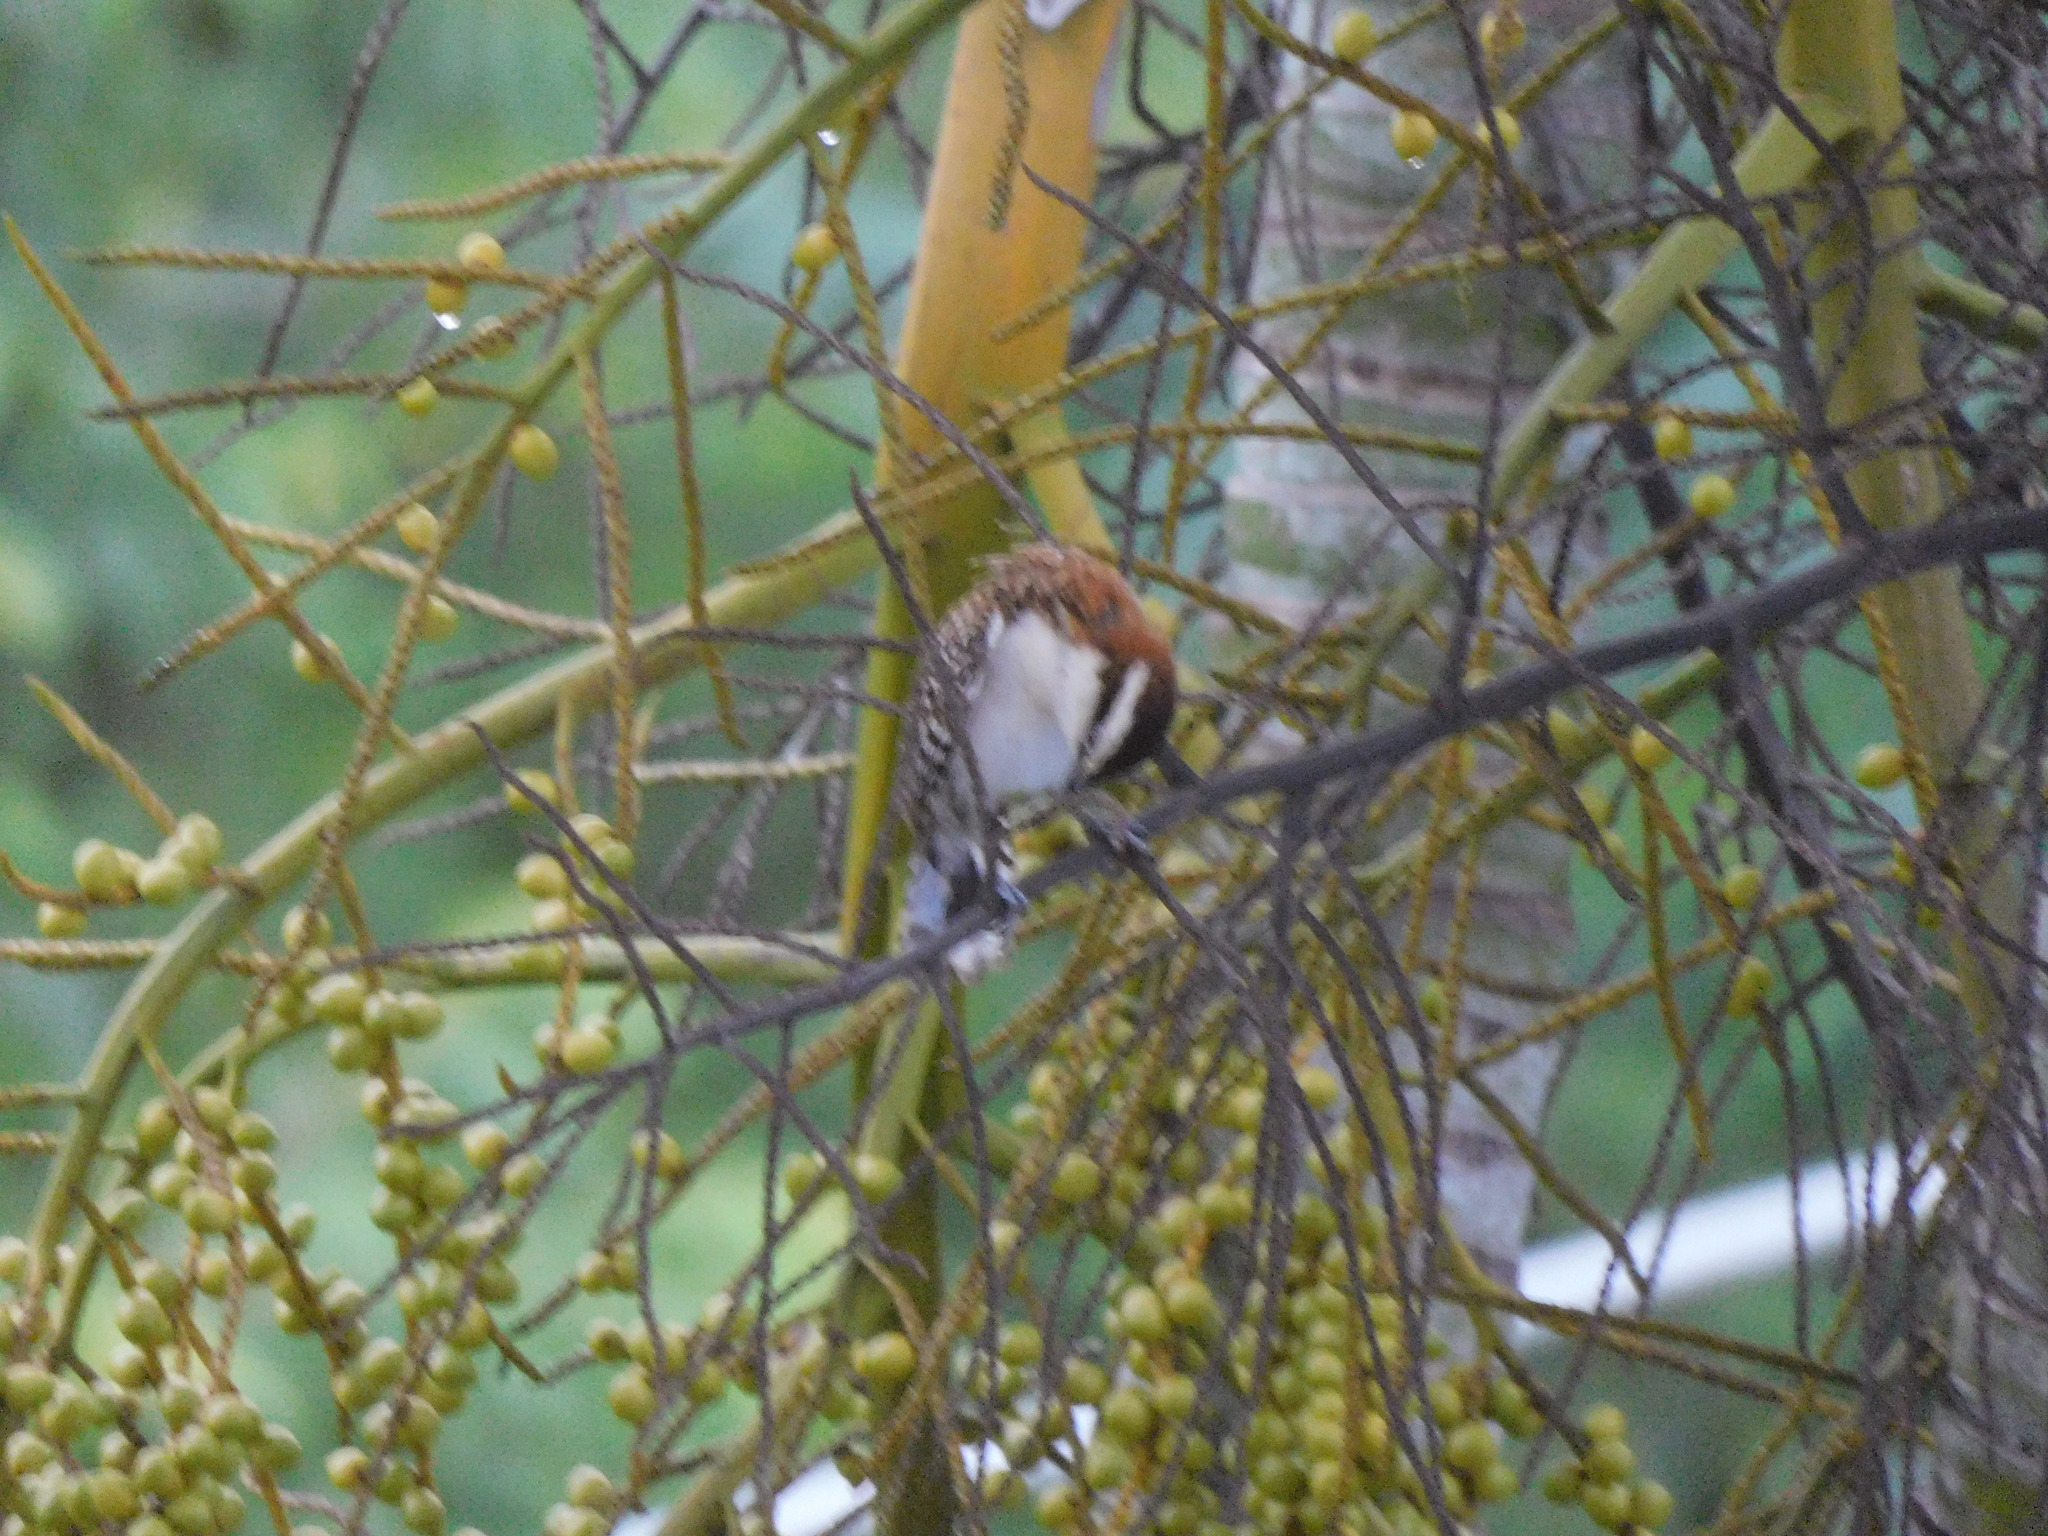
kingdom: Animalia
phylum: Chordata
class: Aves
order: Passeriformes
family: Troglodytidae
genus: Campylorhynchus
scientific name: Campylorhynchus rufinucha
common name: Rufous-naped wren
